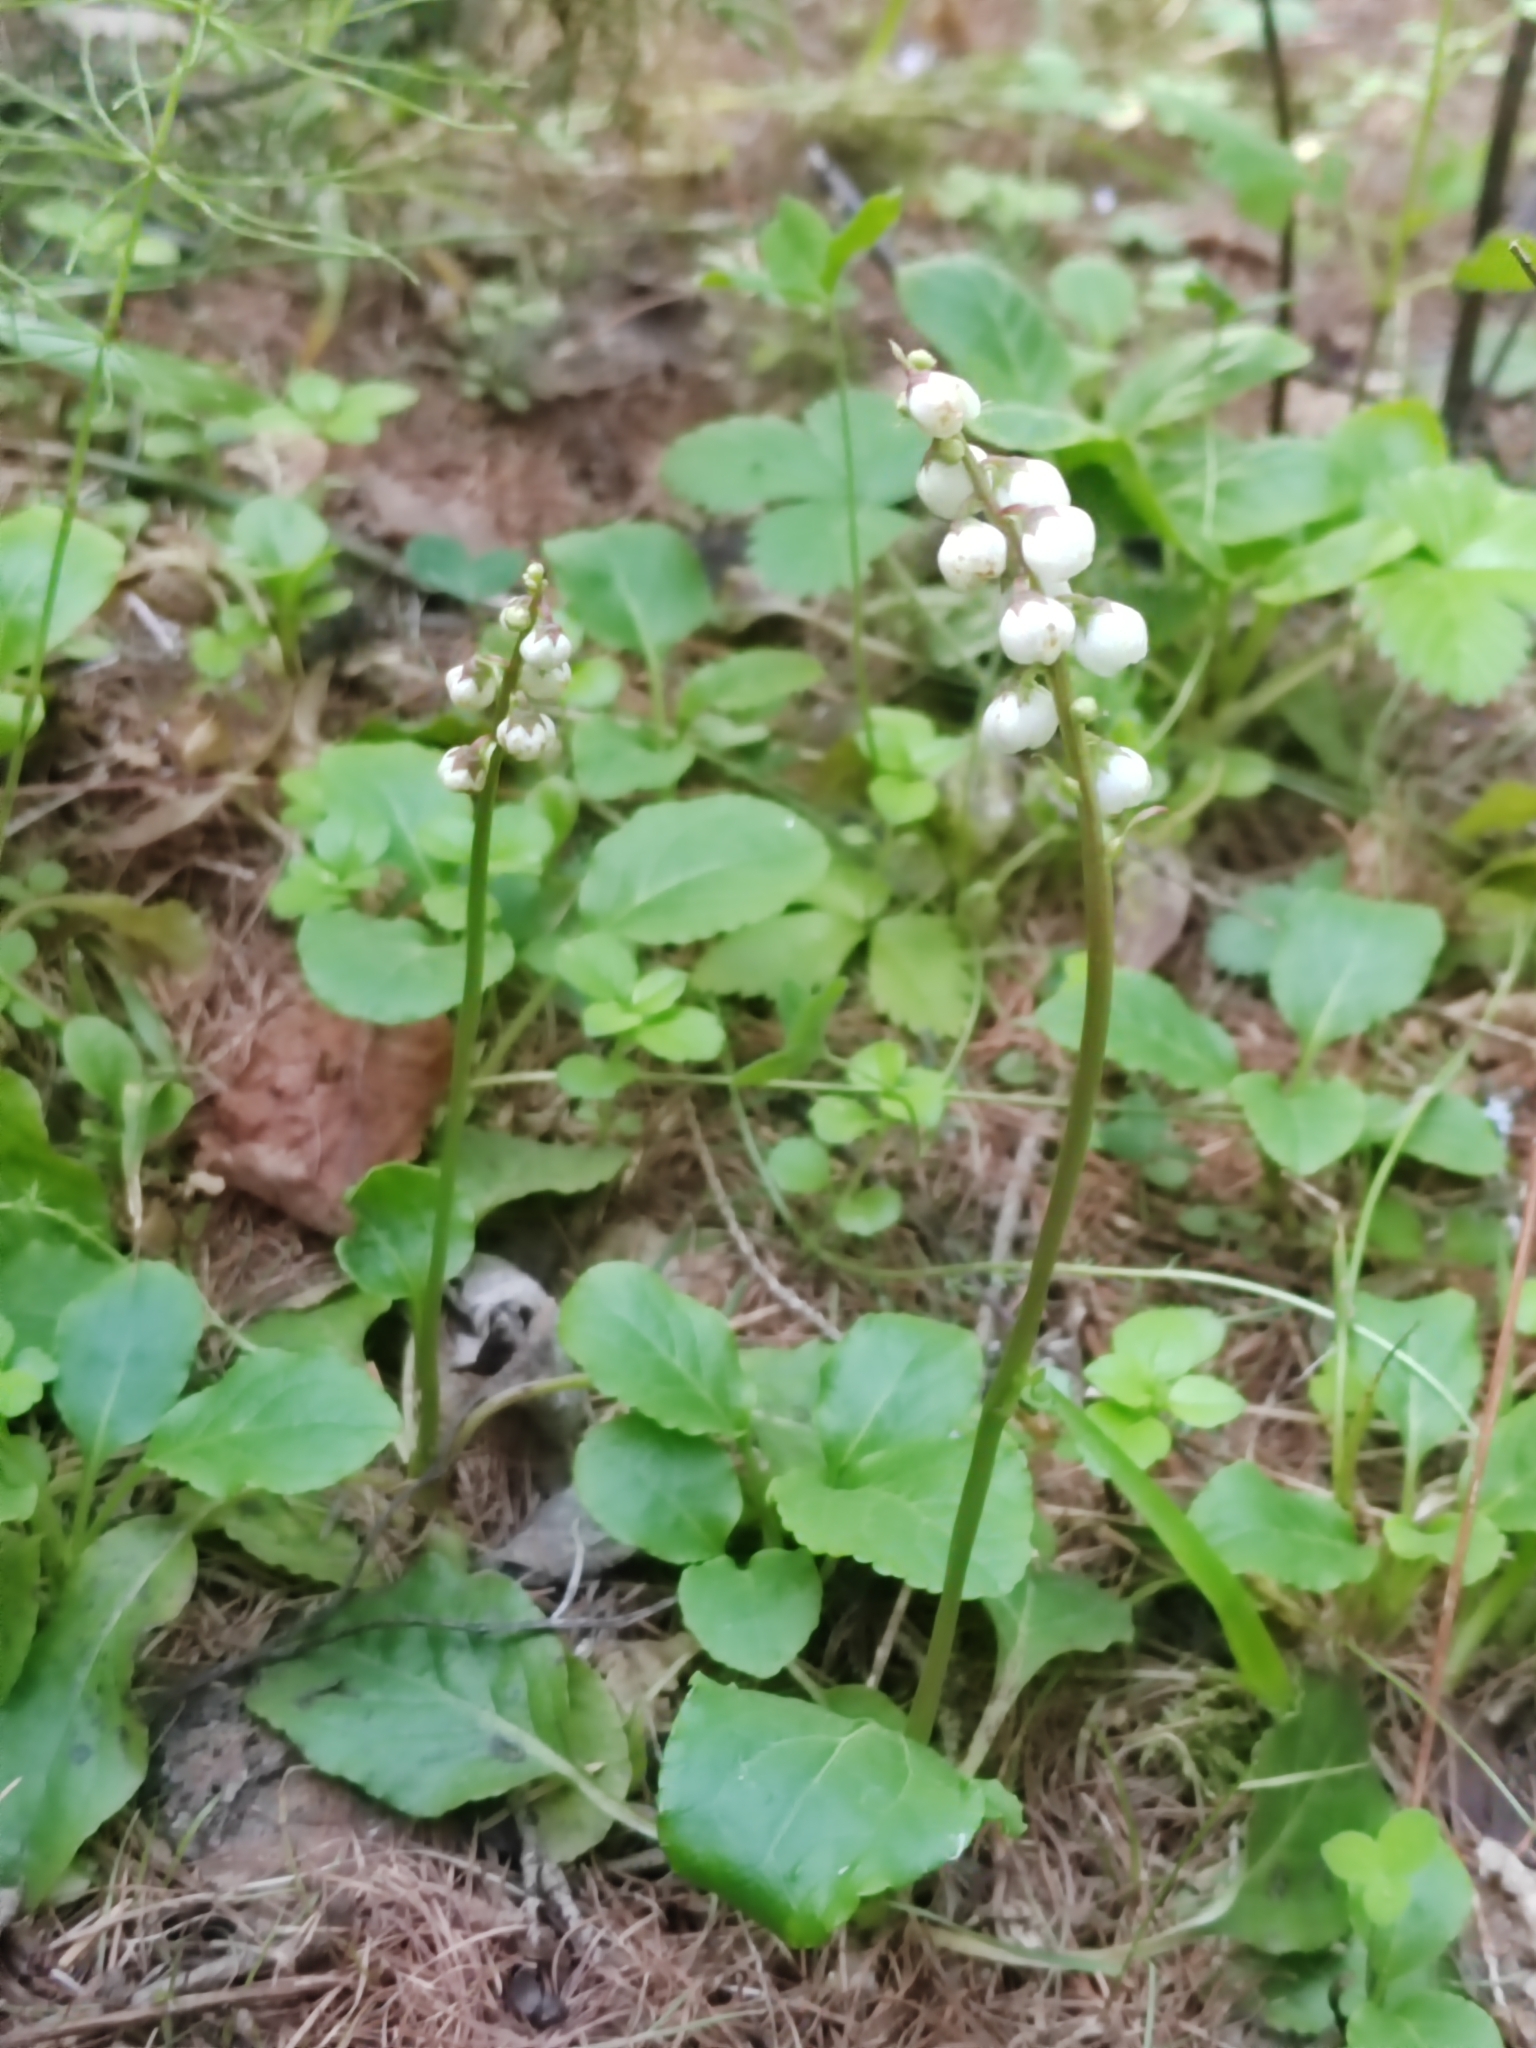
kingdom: Plantae
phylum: Tracheophyta
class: Magnoliopsida
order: Ericales
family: Ericaceae
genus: Pyrola
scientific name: Pyrola minor
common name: Common wintergreen
